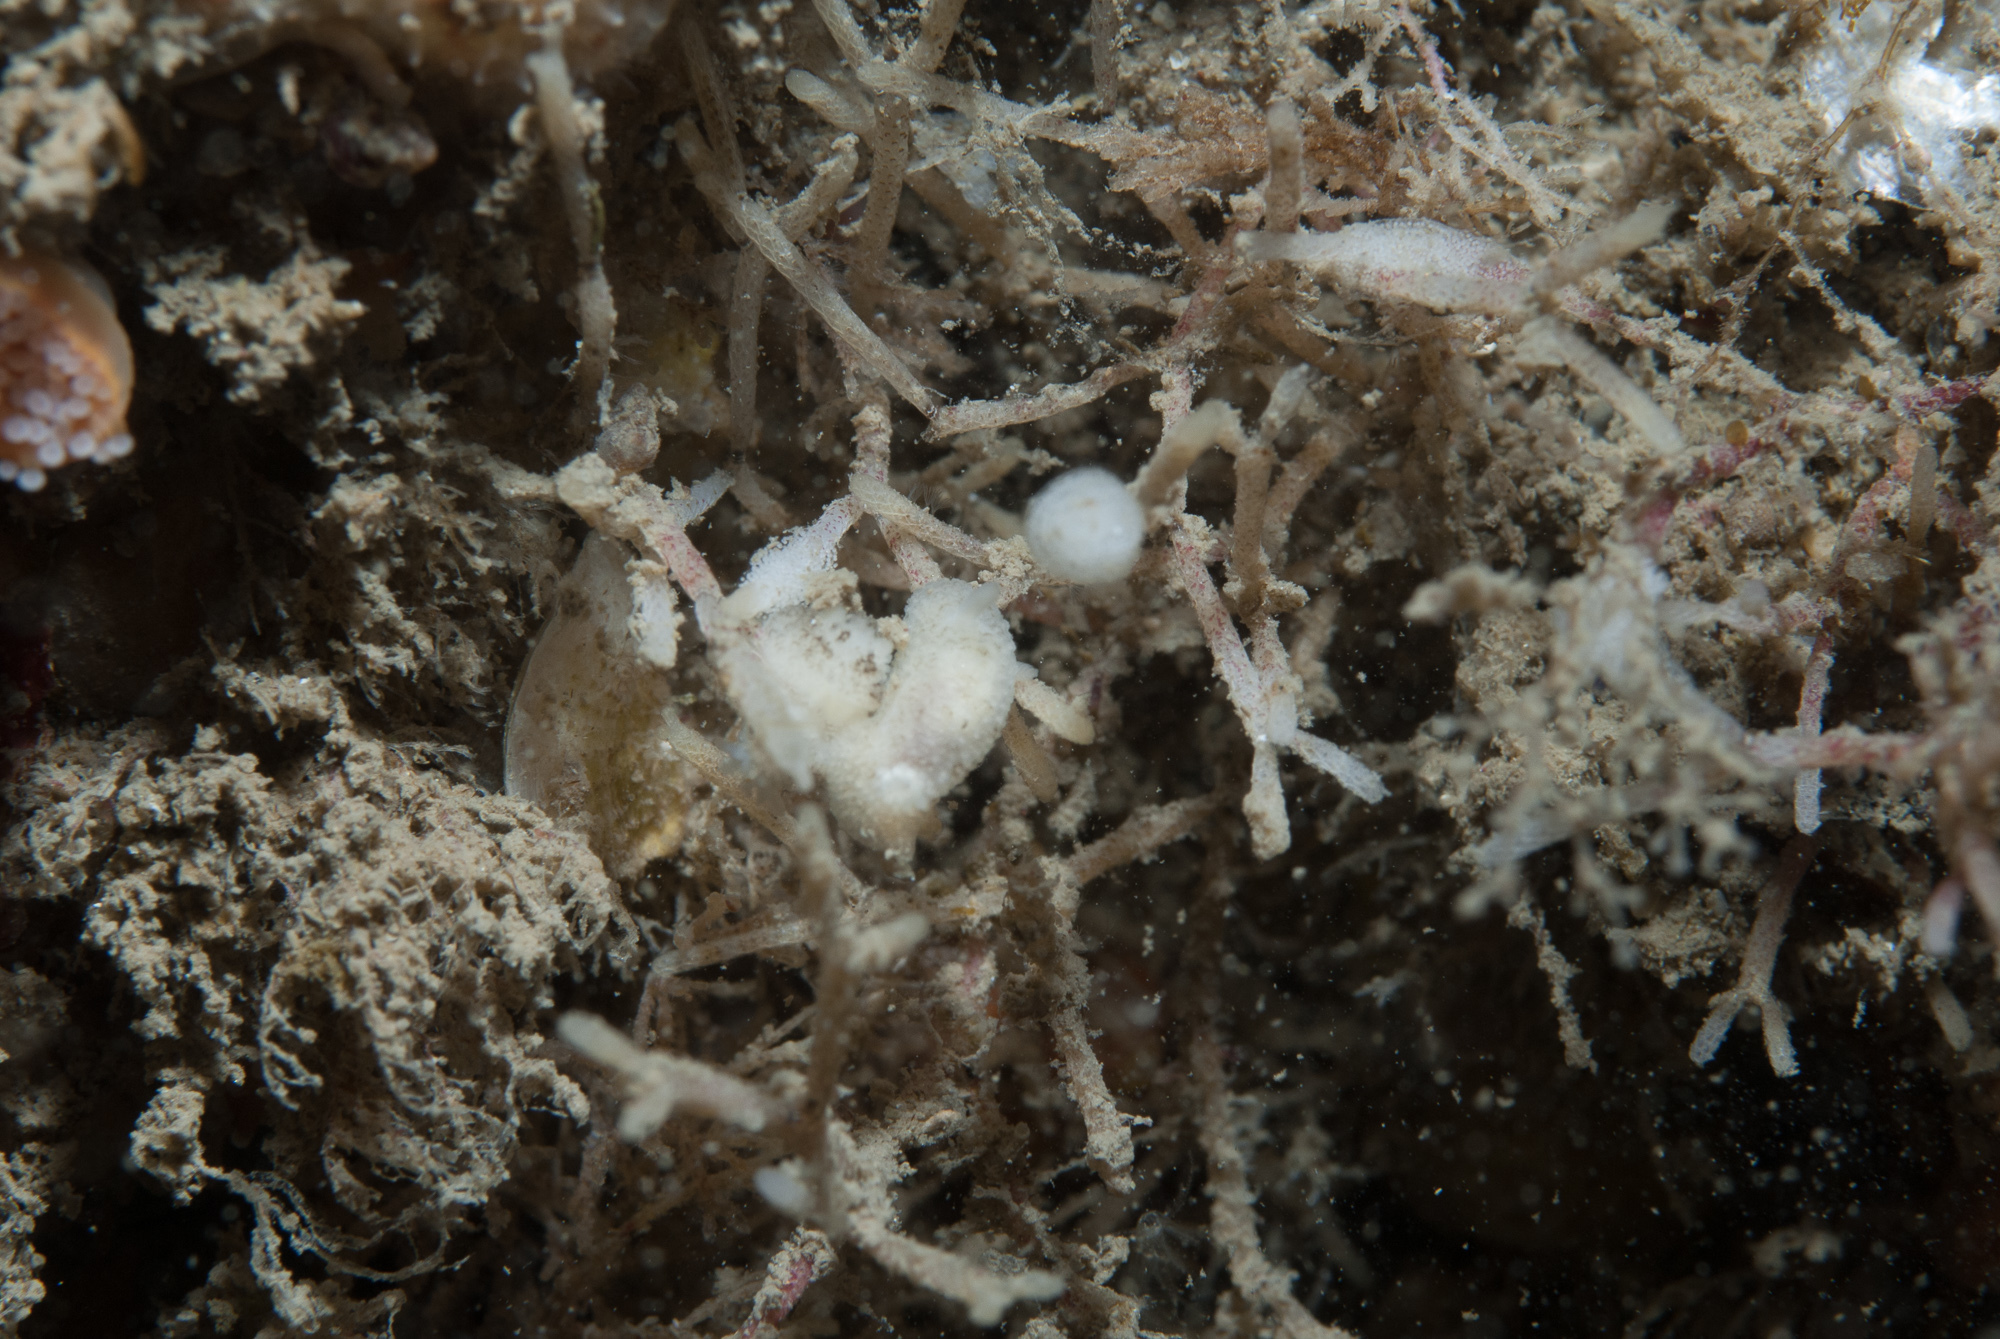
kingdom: Animalia
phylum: Mollusca
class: Gastropoda
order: Nudibranchia
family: Onchidorididae
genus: Atalodoris
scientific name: Atalodoris oblonga
